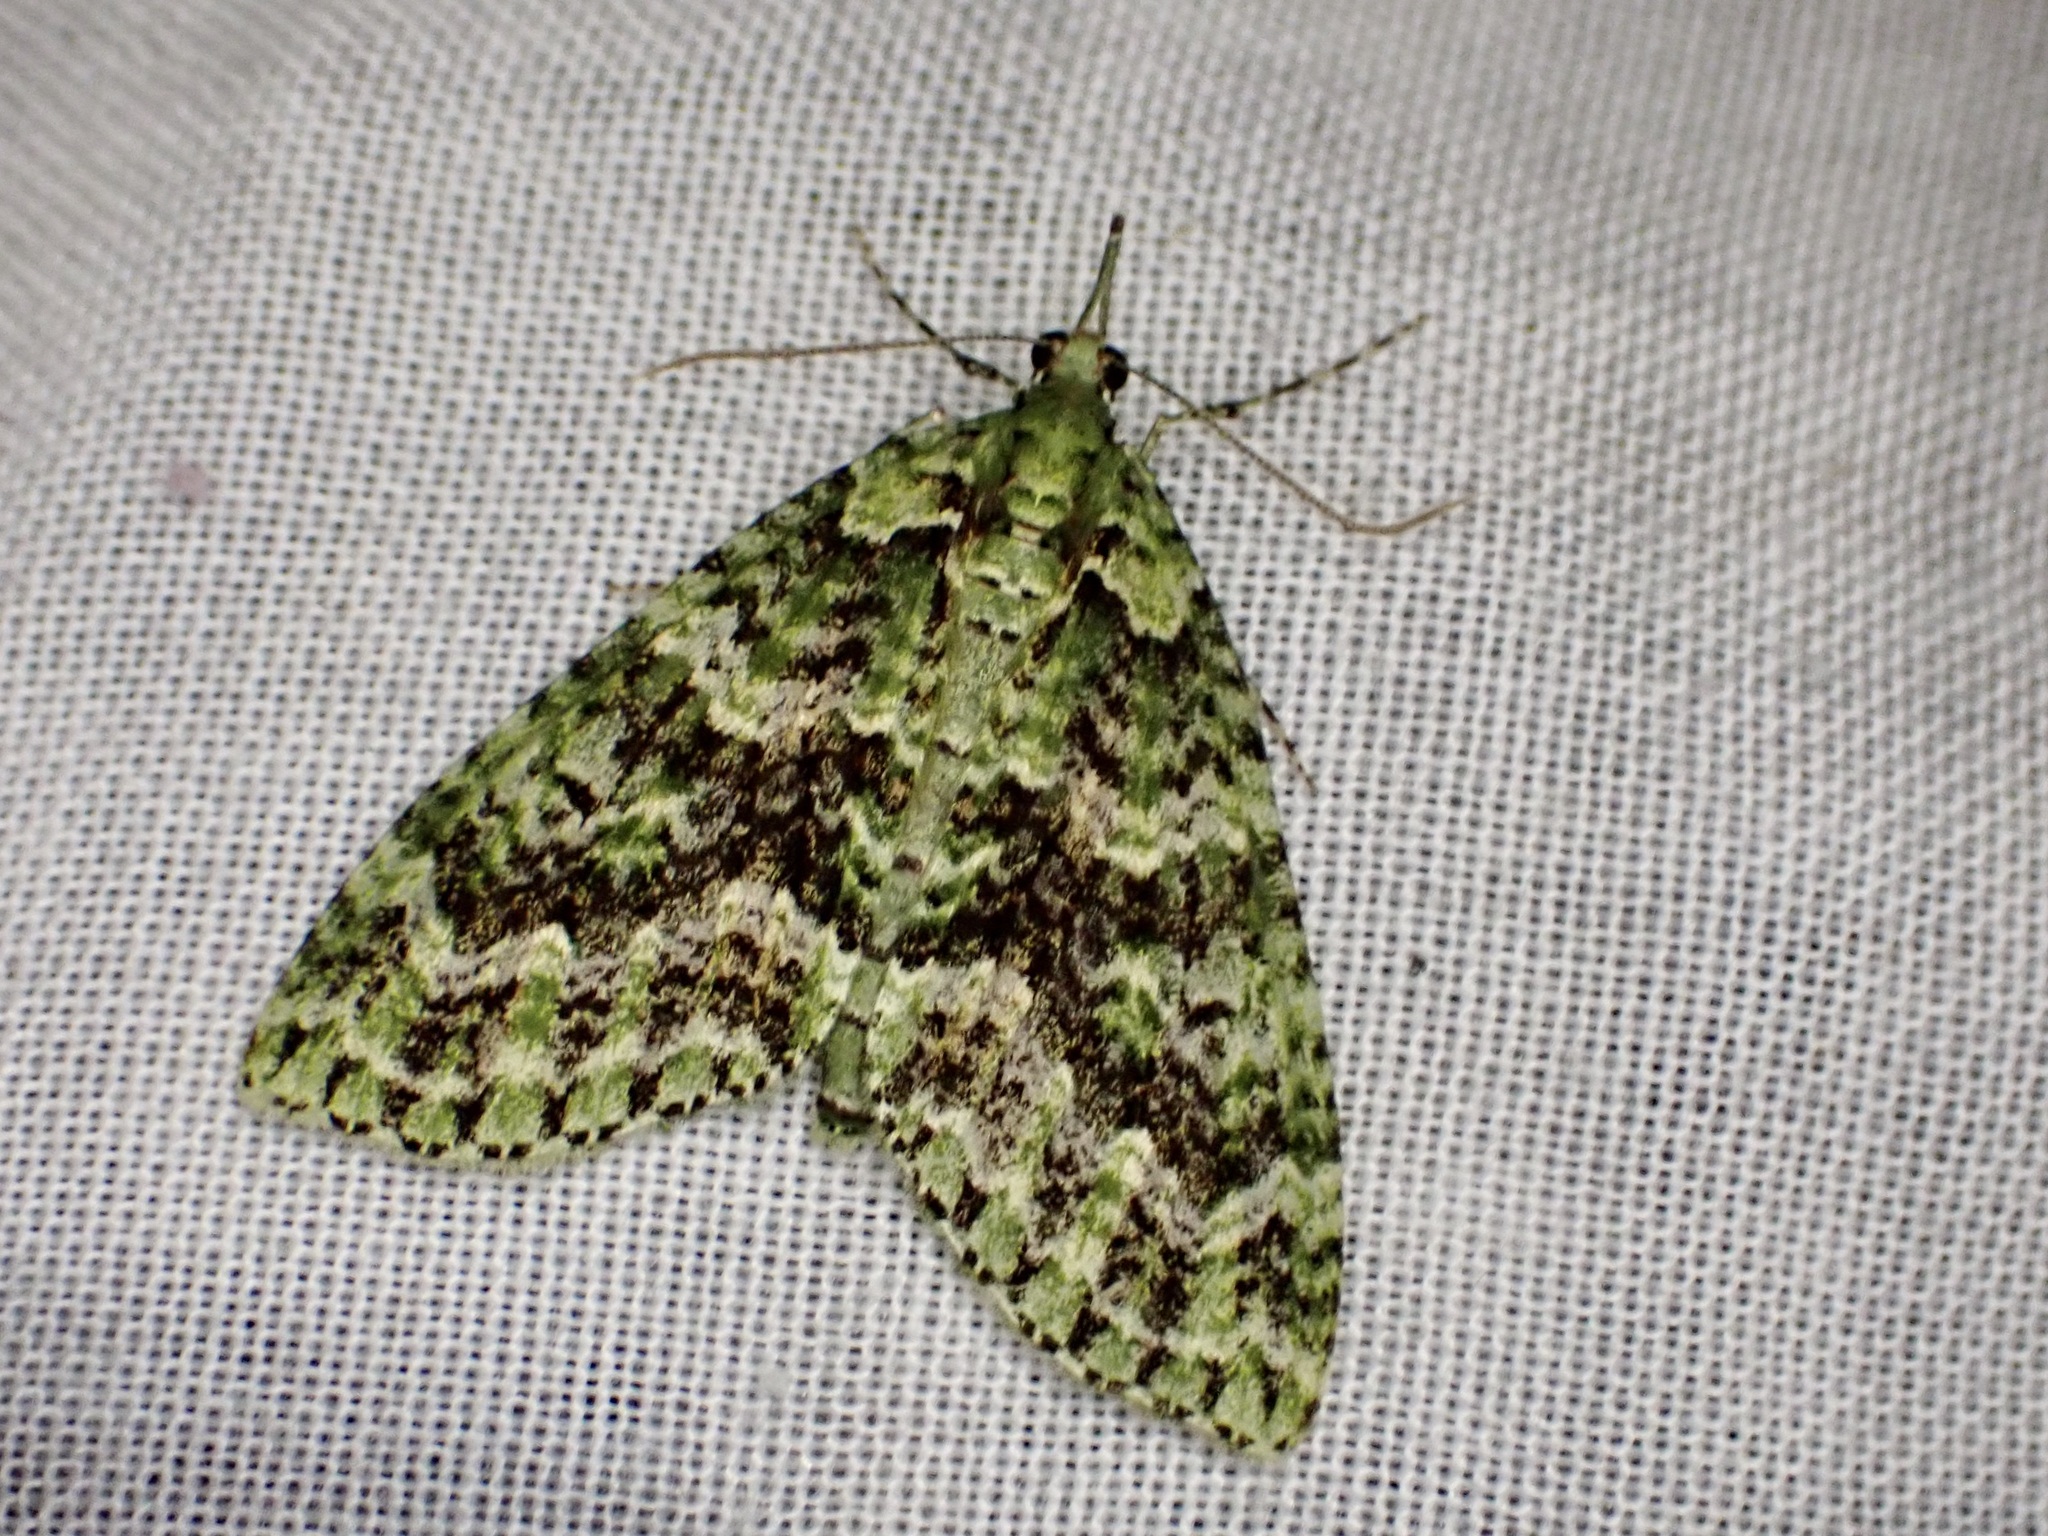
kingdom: Animalia
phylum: Arthropoda
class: Insecta
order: Lepidoptera
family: Geometridae
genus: Tatosoma
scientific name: Tatosoma tipulata
